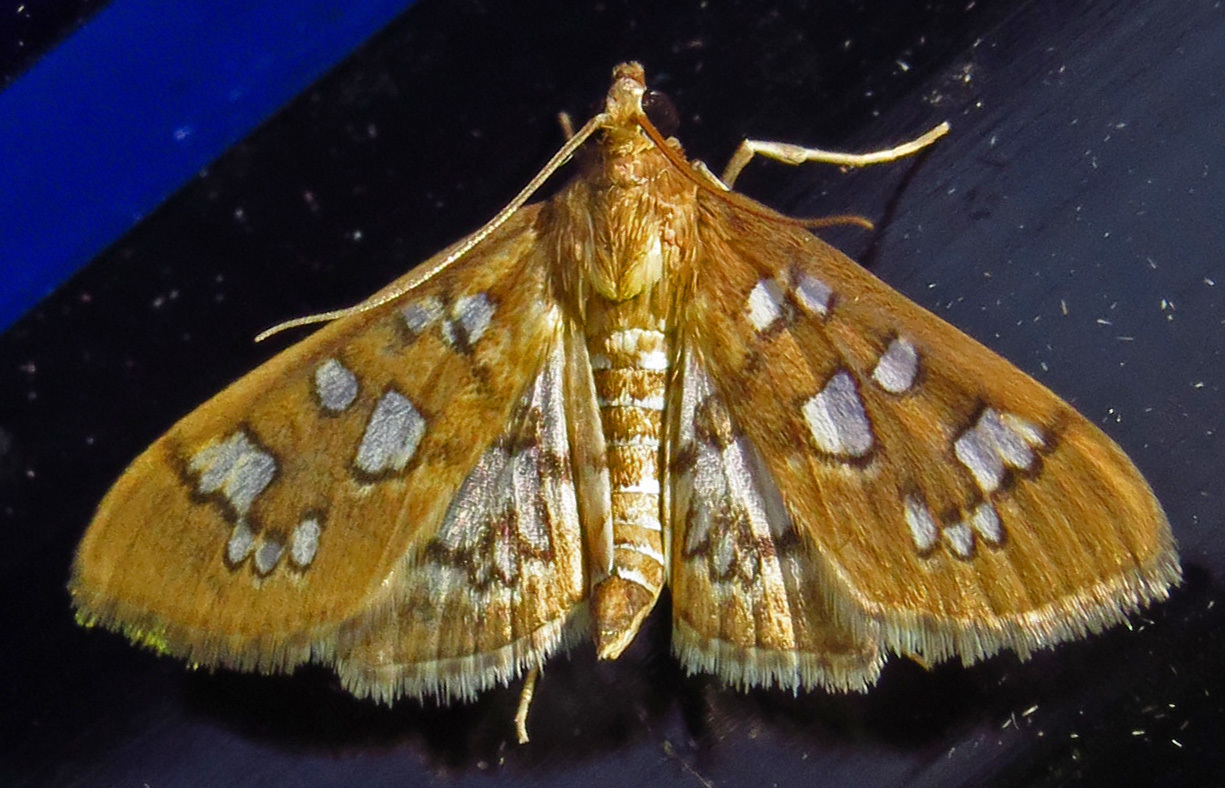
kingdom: Animalia
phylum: Arthropoda
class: Insecta
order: Lepidoptera
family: Crambidae
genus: Samea
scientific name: Samea baccatalis
